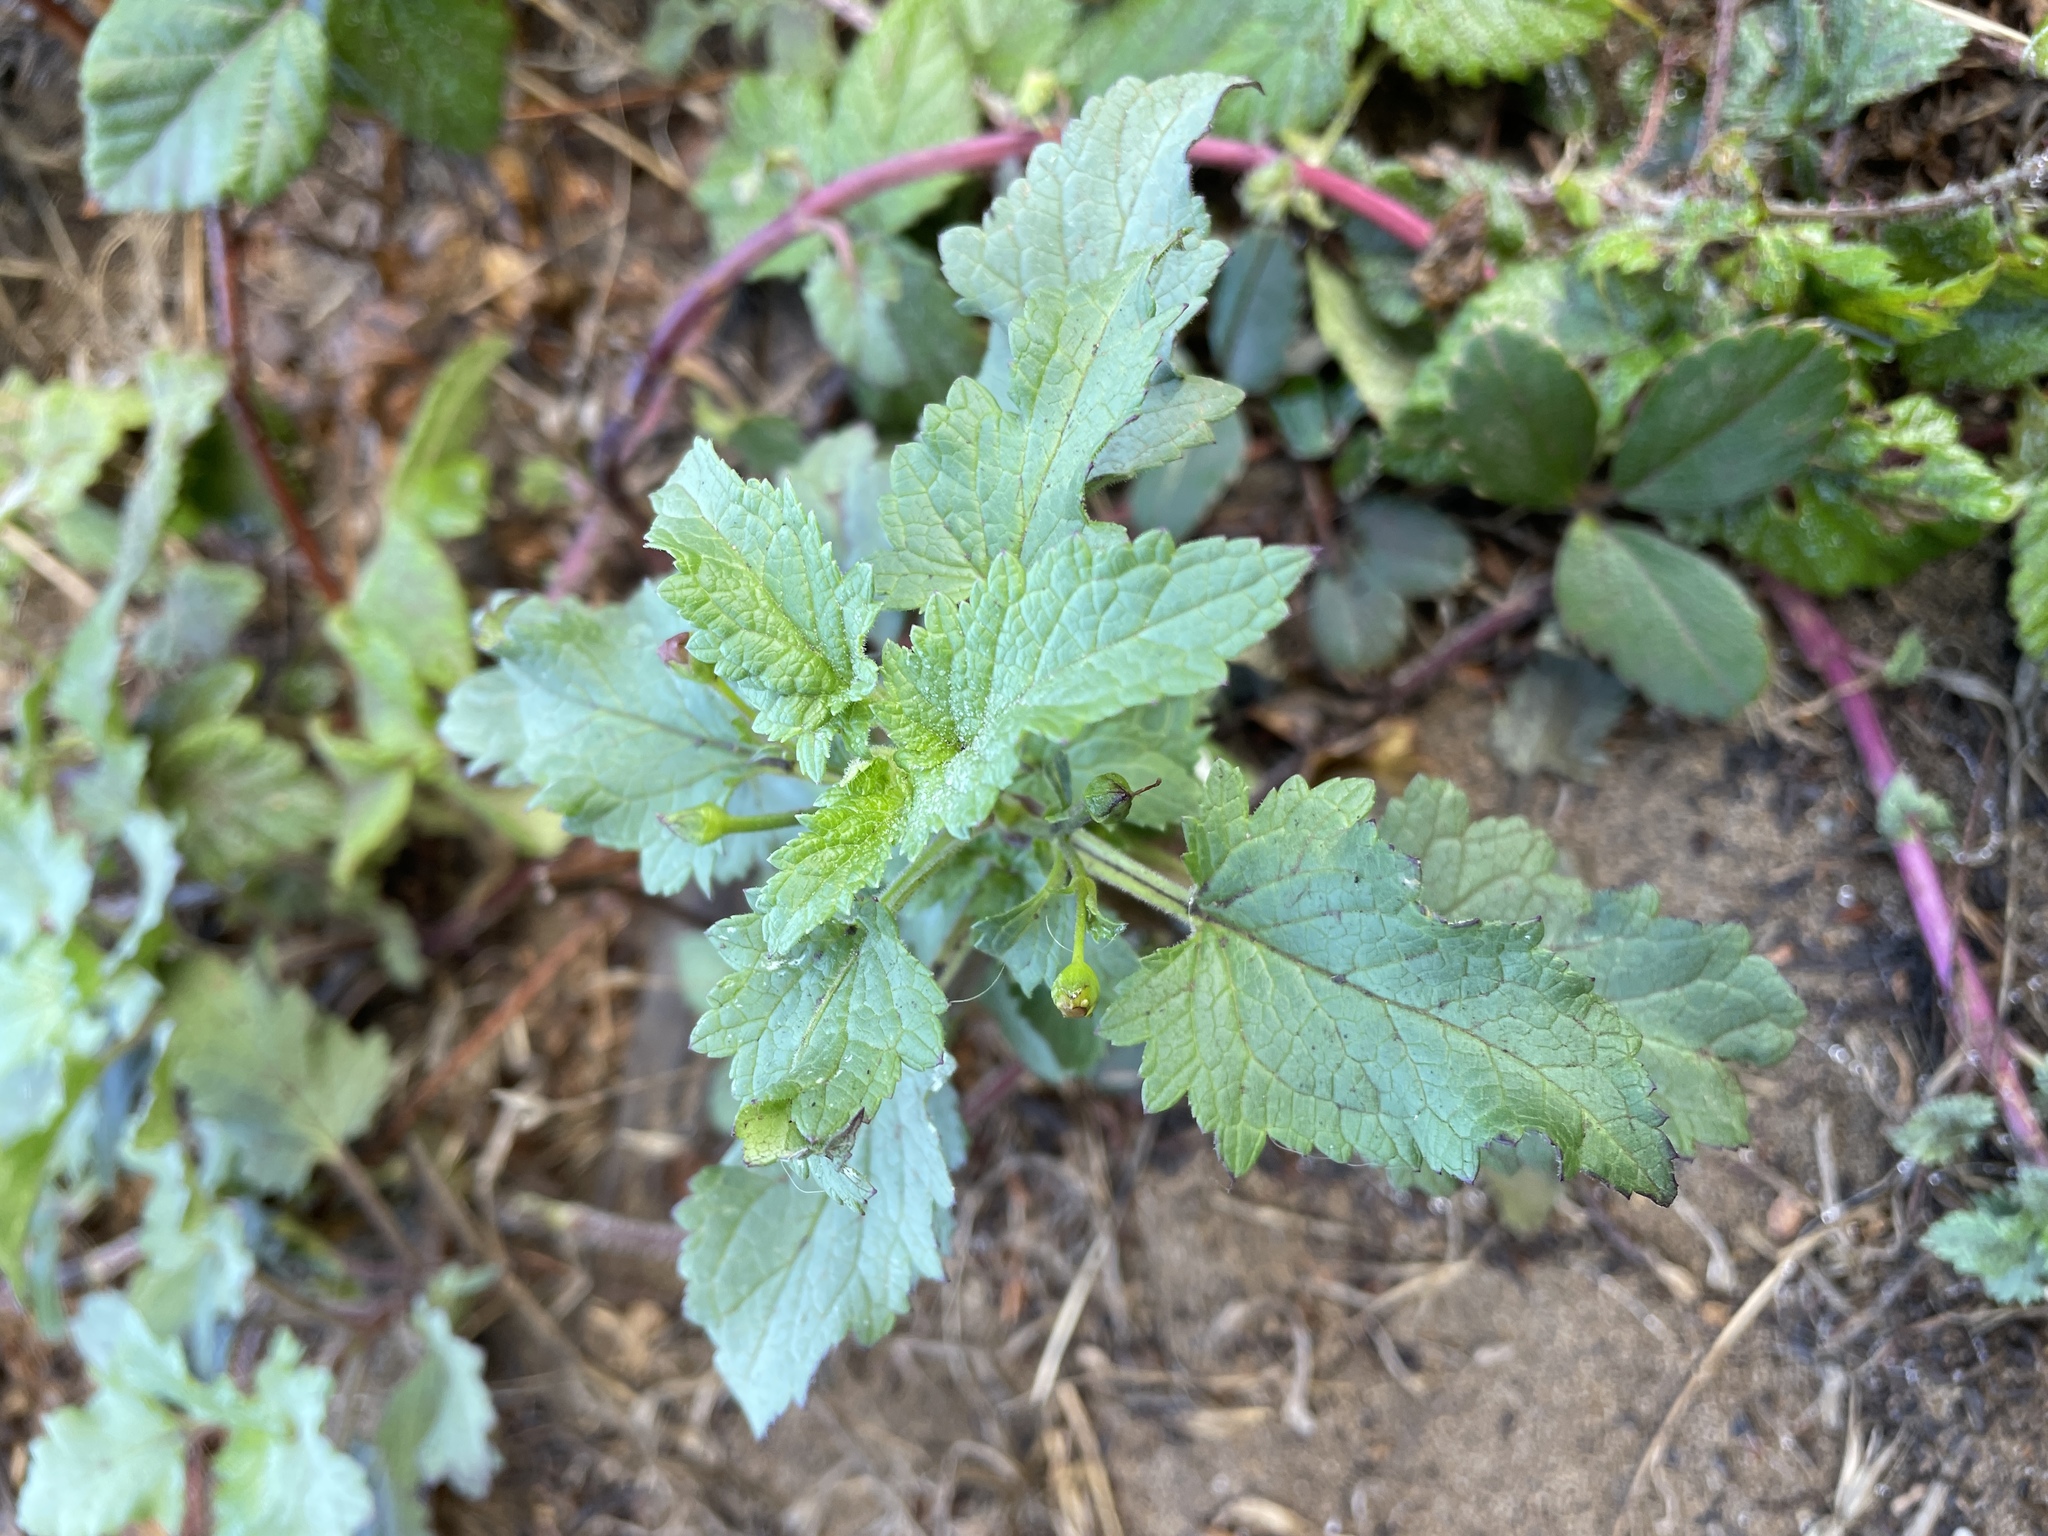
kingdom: Plantae
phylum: Tracheophyta
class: Magnoliopsida
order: Lamiales
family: Scrophulariaceae
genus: Scrophularia
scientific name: Scrophularia californica
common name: California figwort
